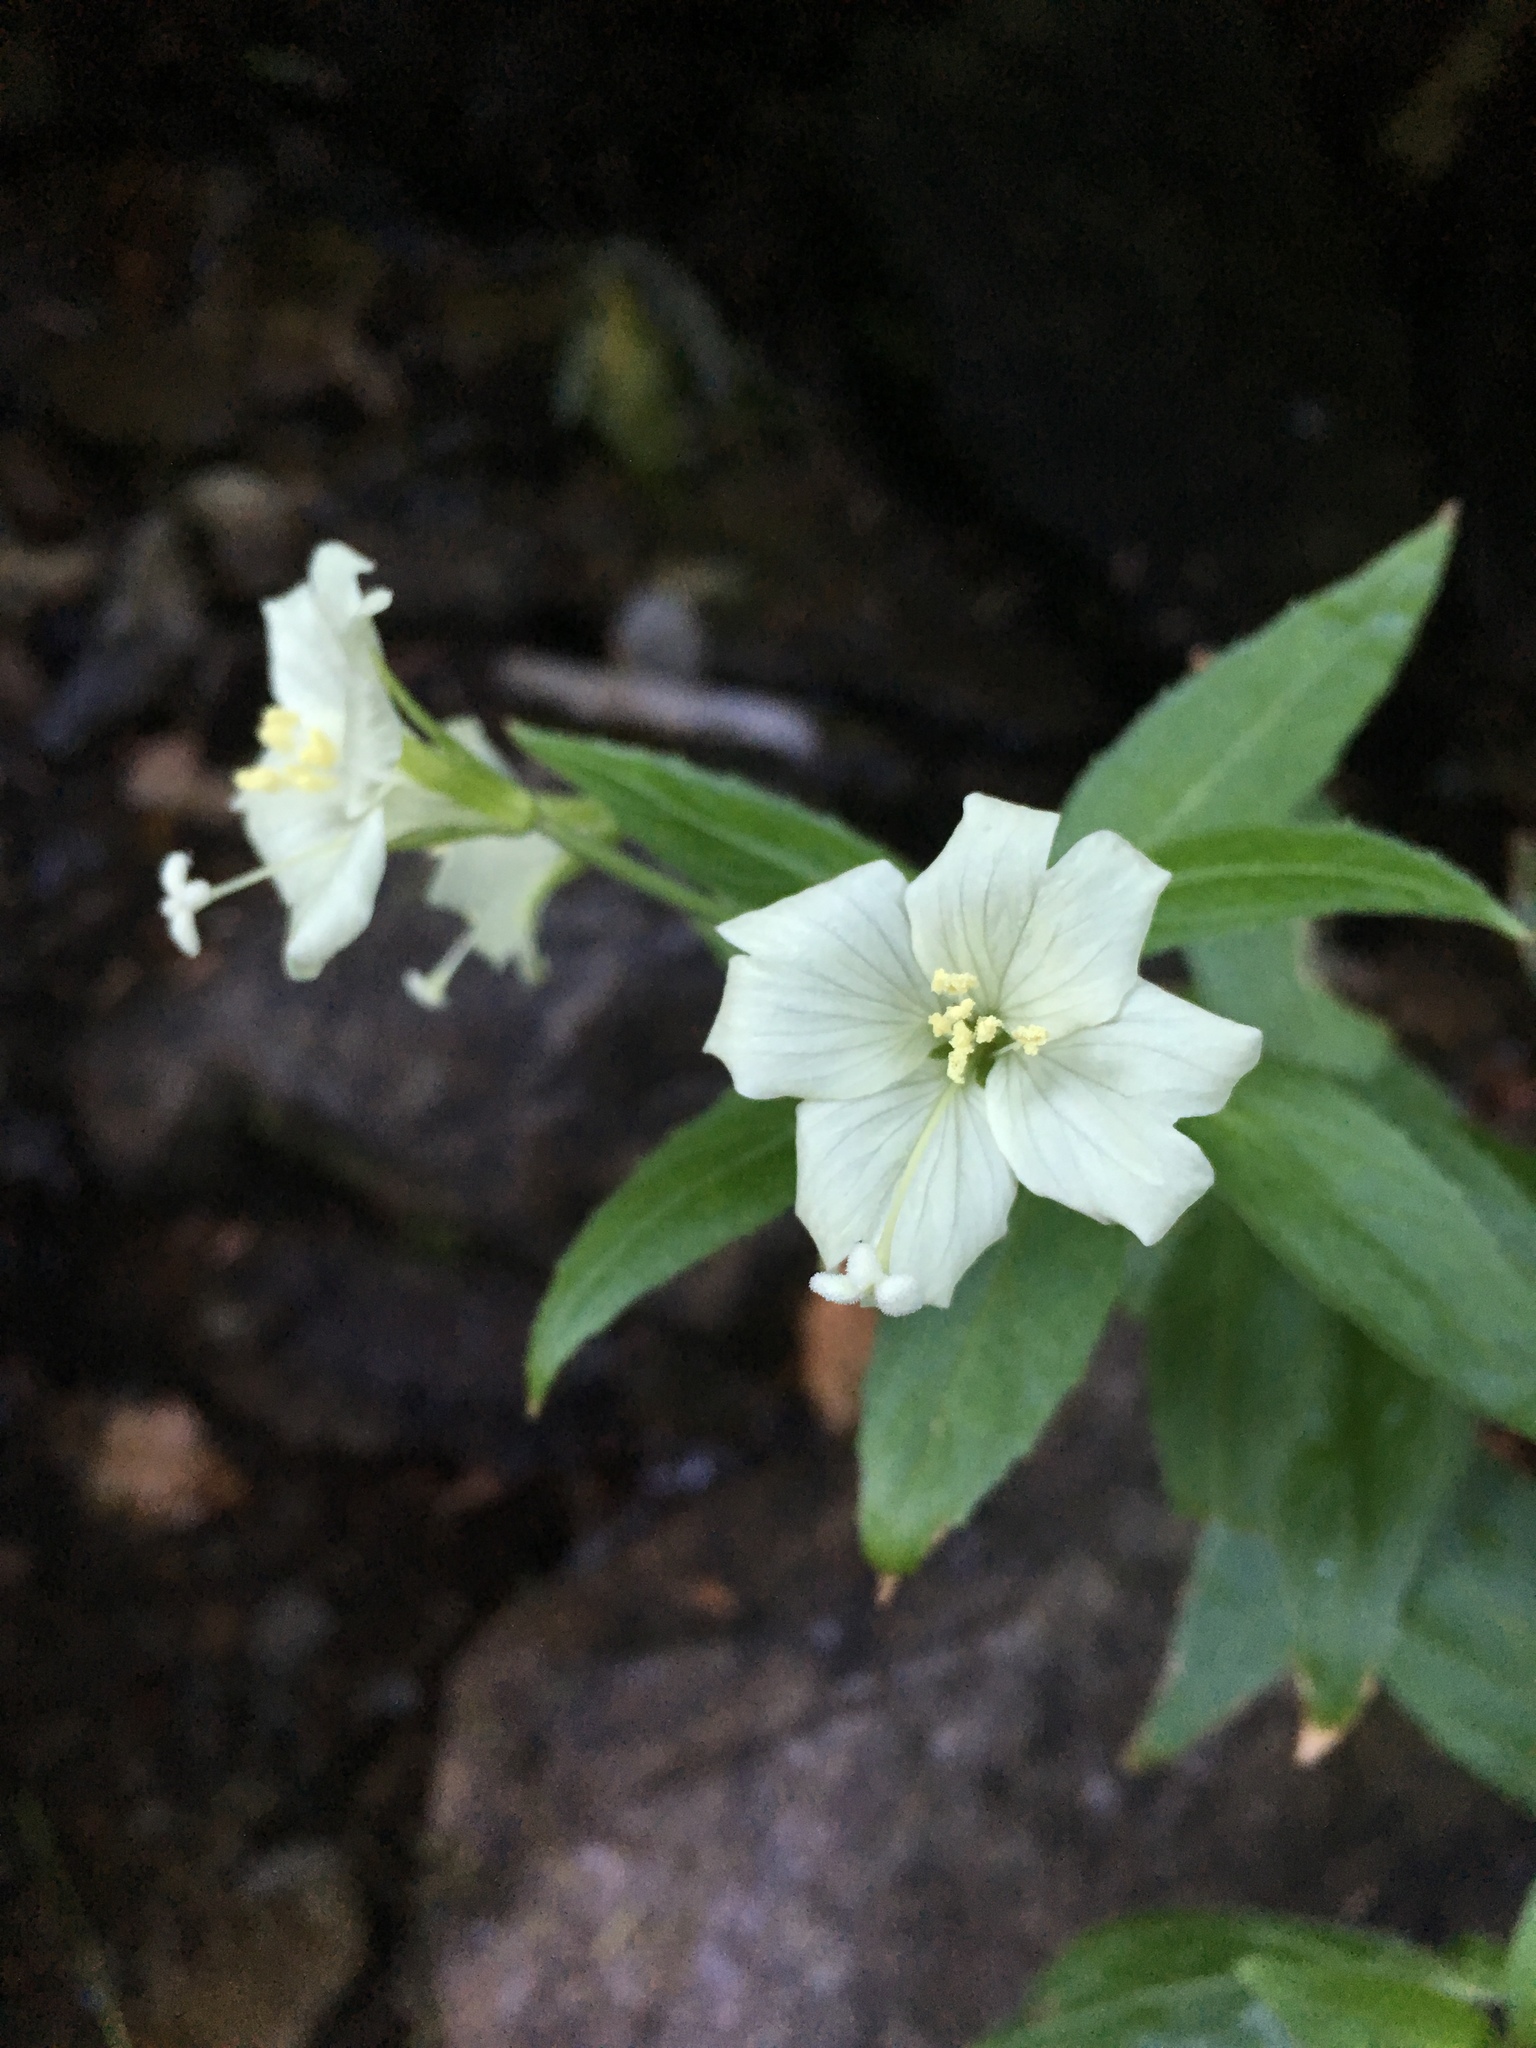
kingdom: Plantae
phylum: Tracheophyta
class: Magnoliopsida
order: Myrtales
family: Onagraceae
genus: Epilobium
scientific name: Epilobium luteum
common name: Yellow willowherb
